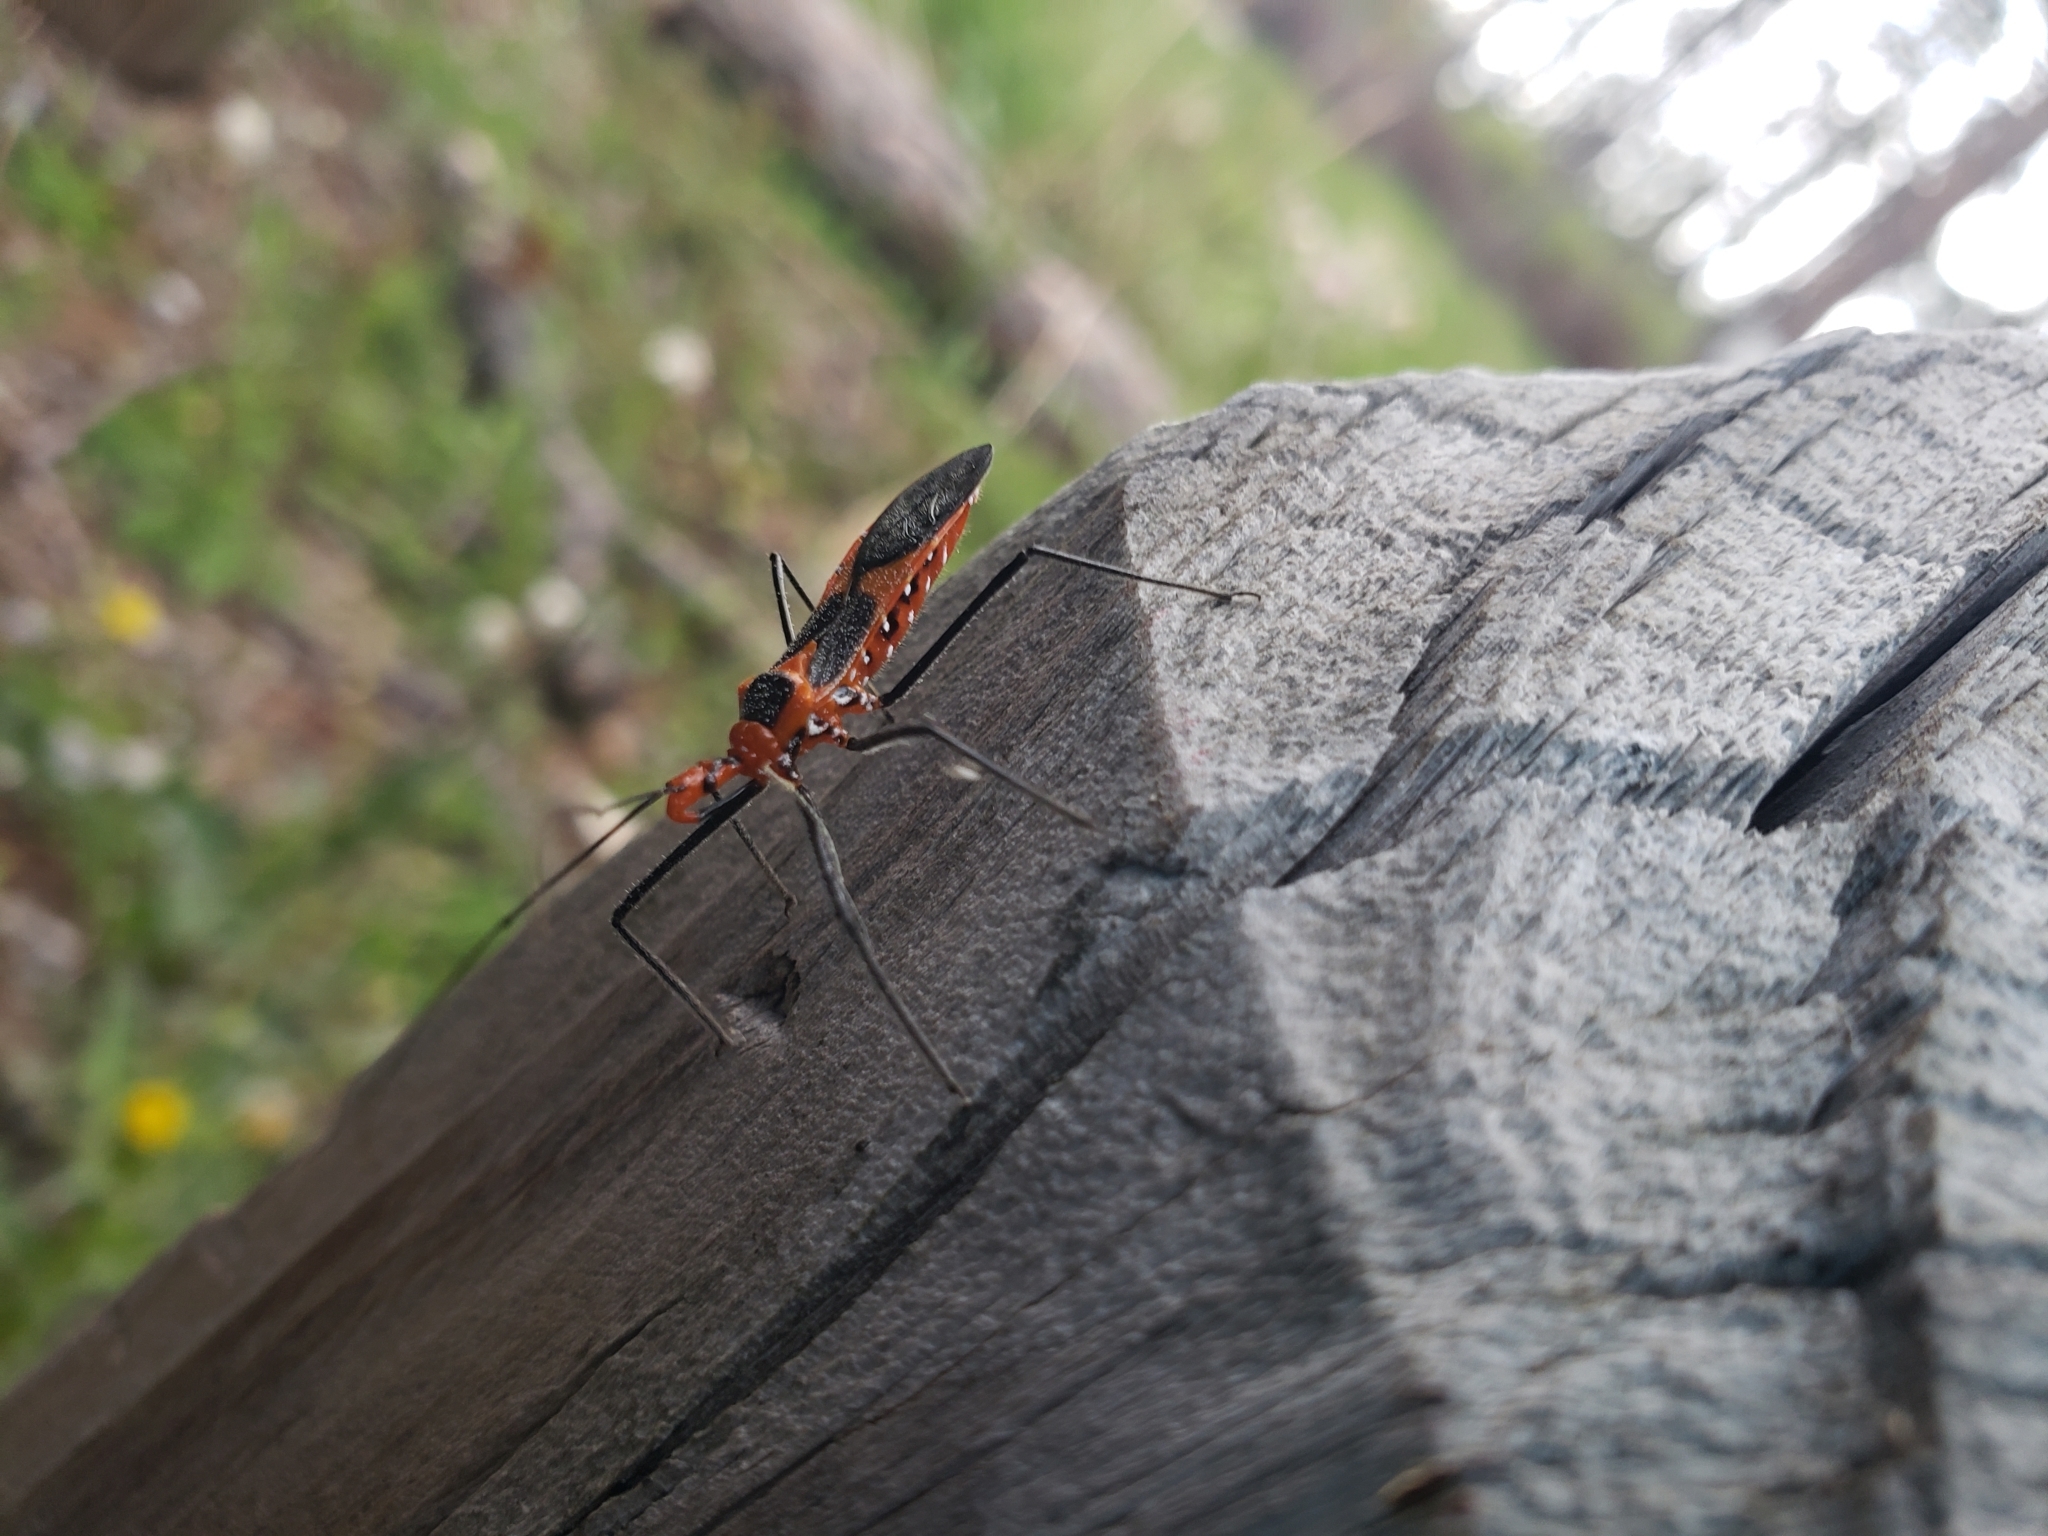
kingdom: Animalia
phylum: Arthropoda
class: Insecta
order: Hemiptera
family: Reduviidae
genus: Zelus
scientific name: Zelus longipes
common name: Milkweed assassin bug
